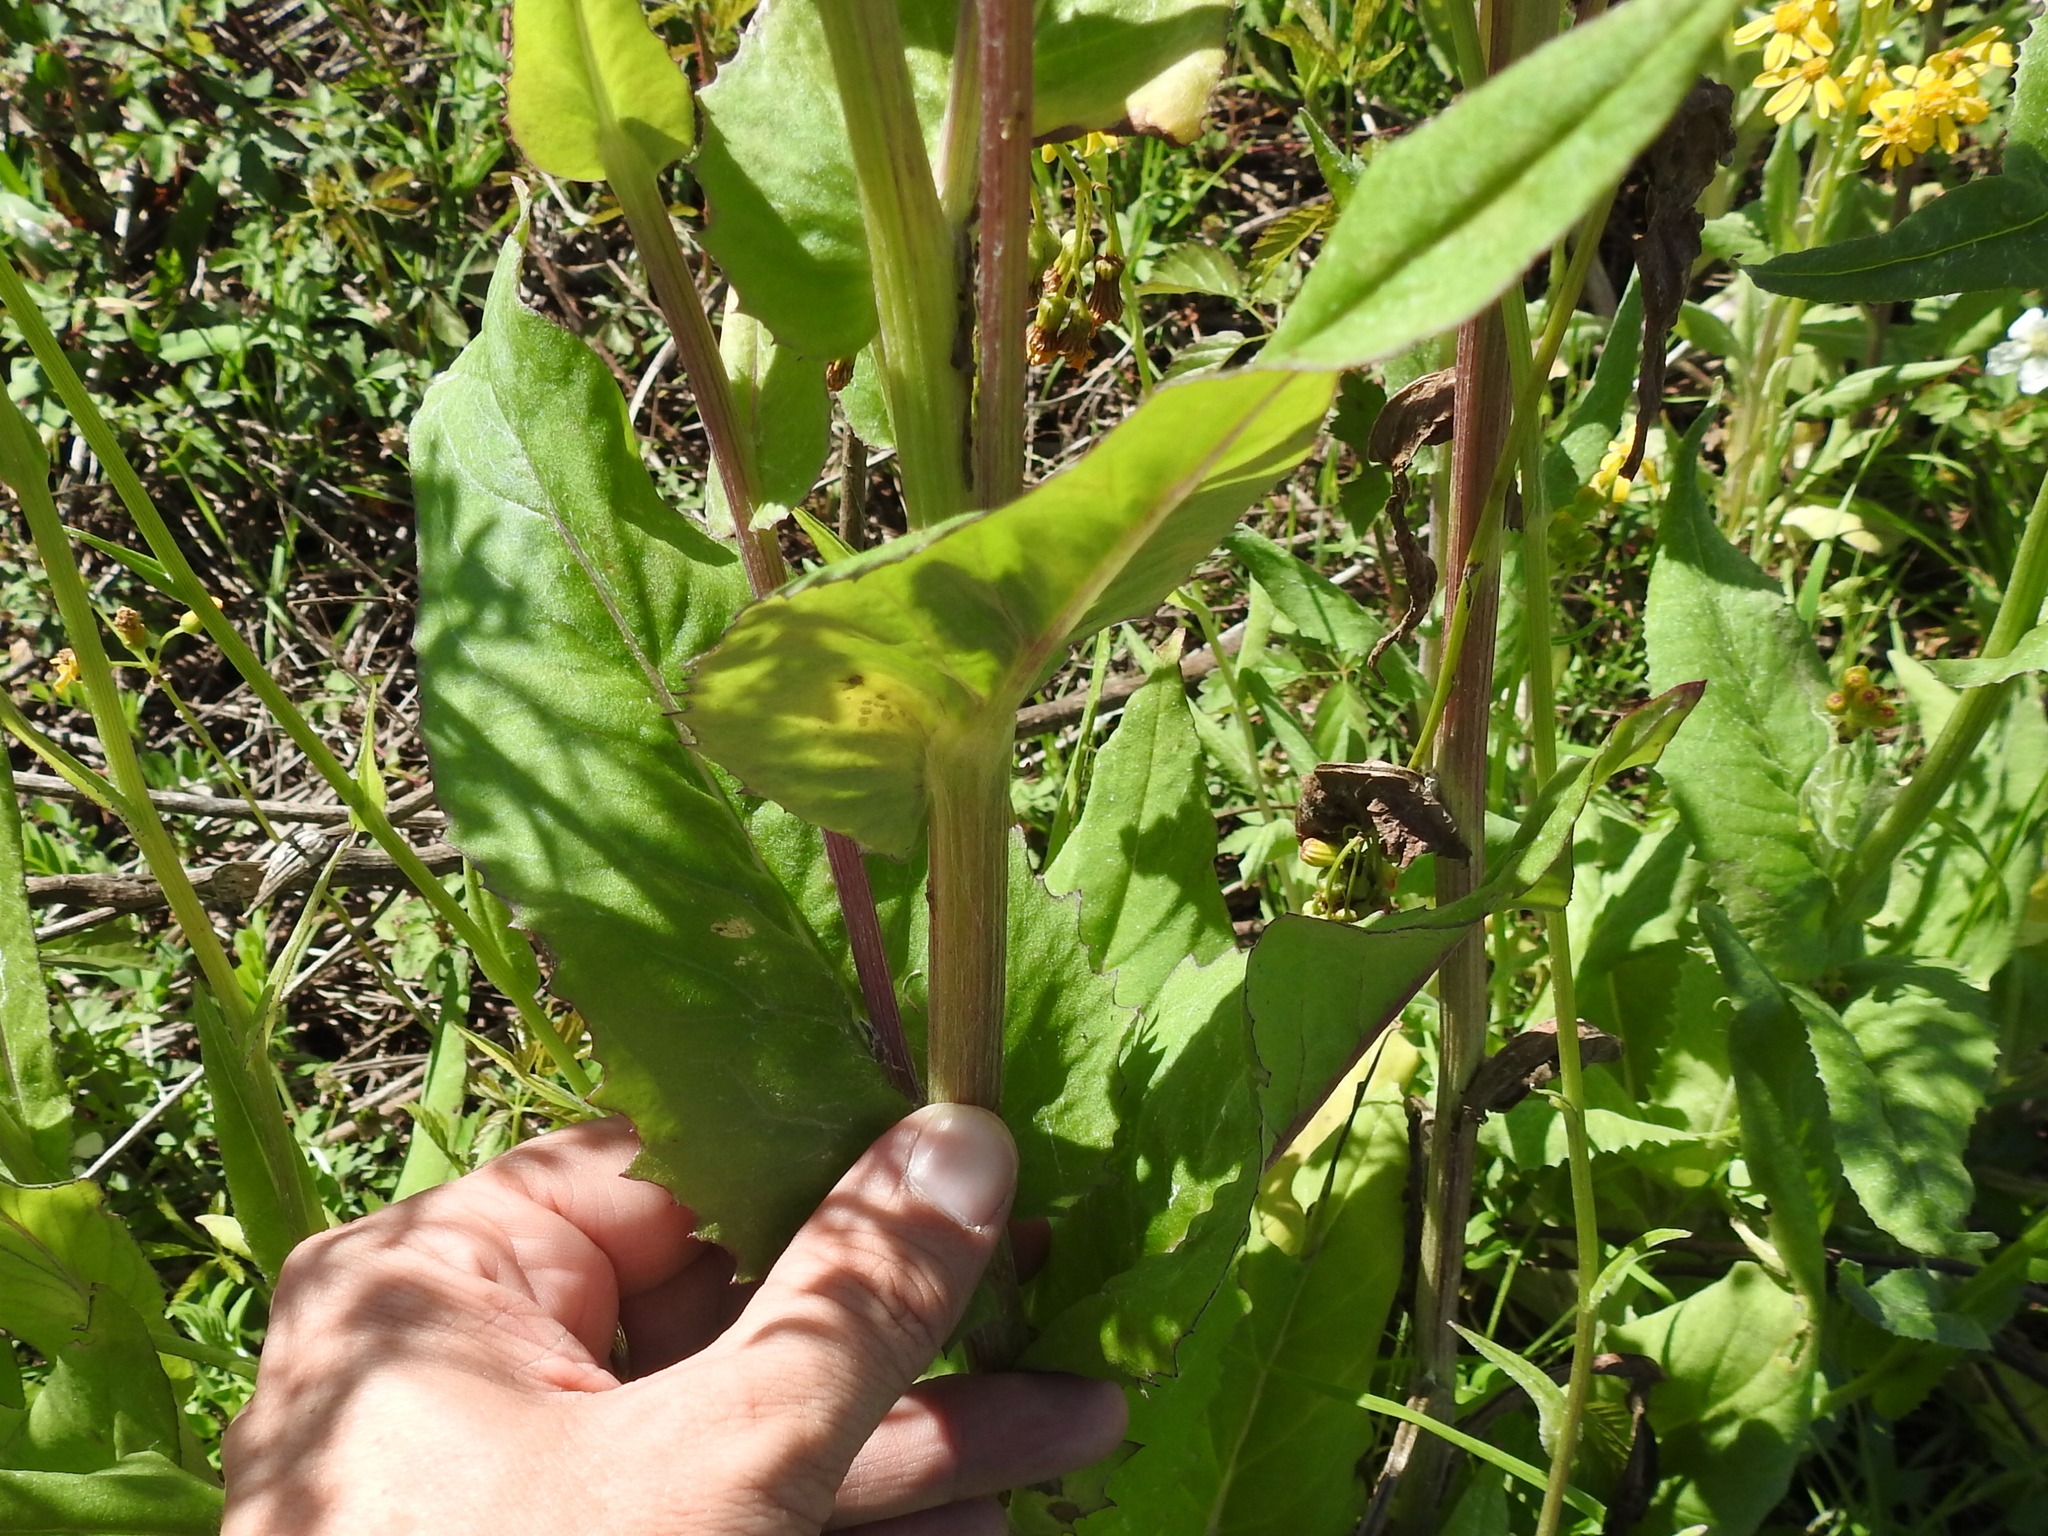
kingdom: Plantae
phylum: Tracheophyta
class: Magnoliopsida
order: Asterales
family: Asteraceae
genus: Senecio
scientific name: Senecio ampullaceus
